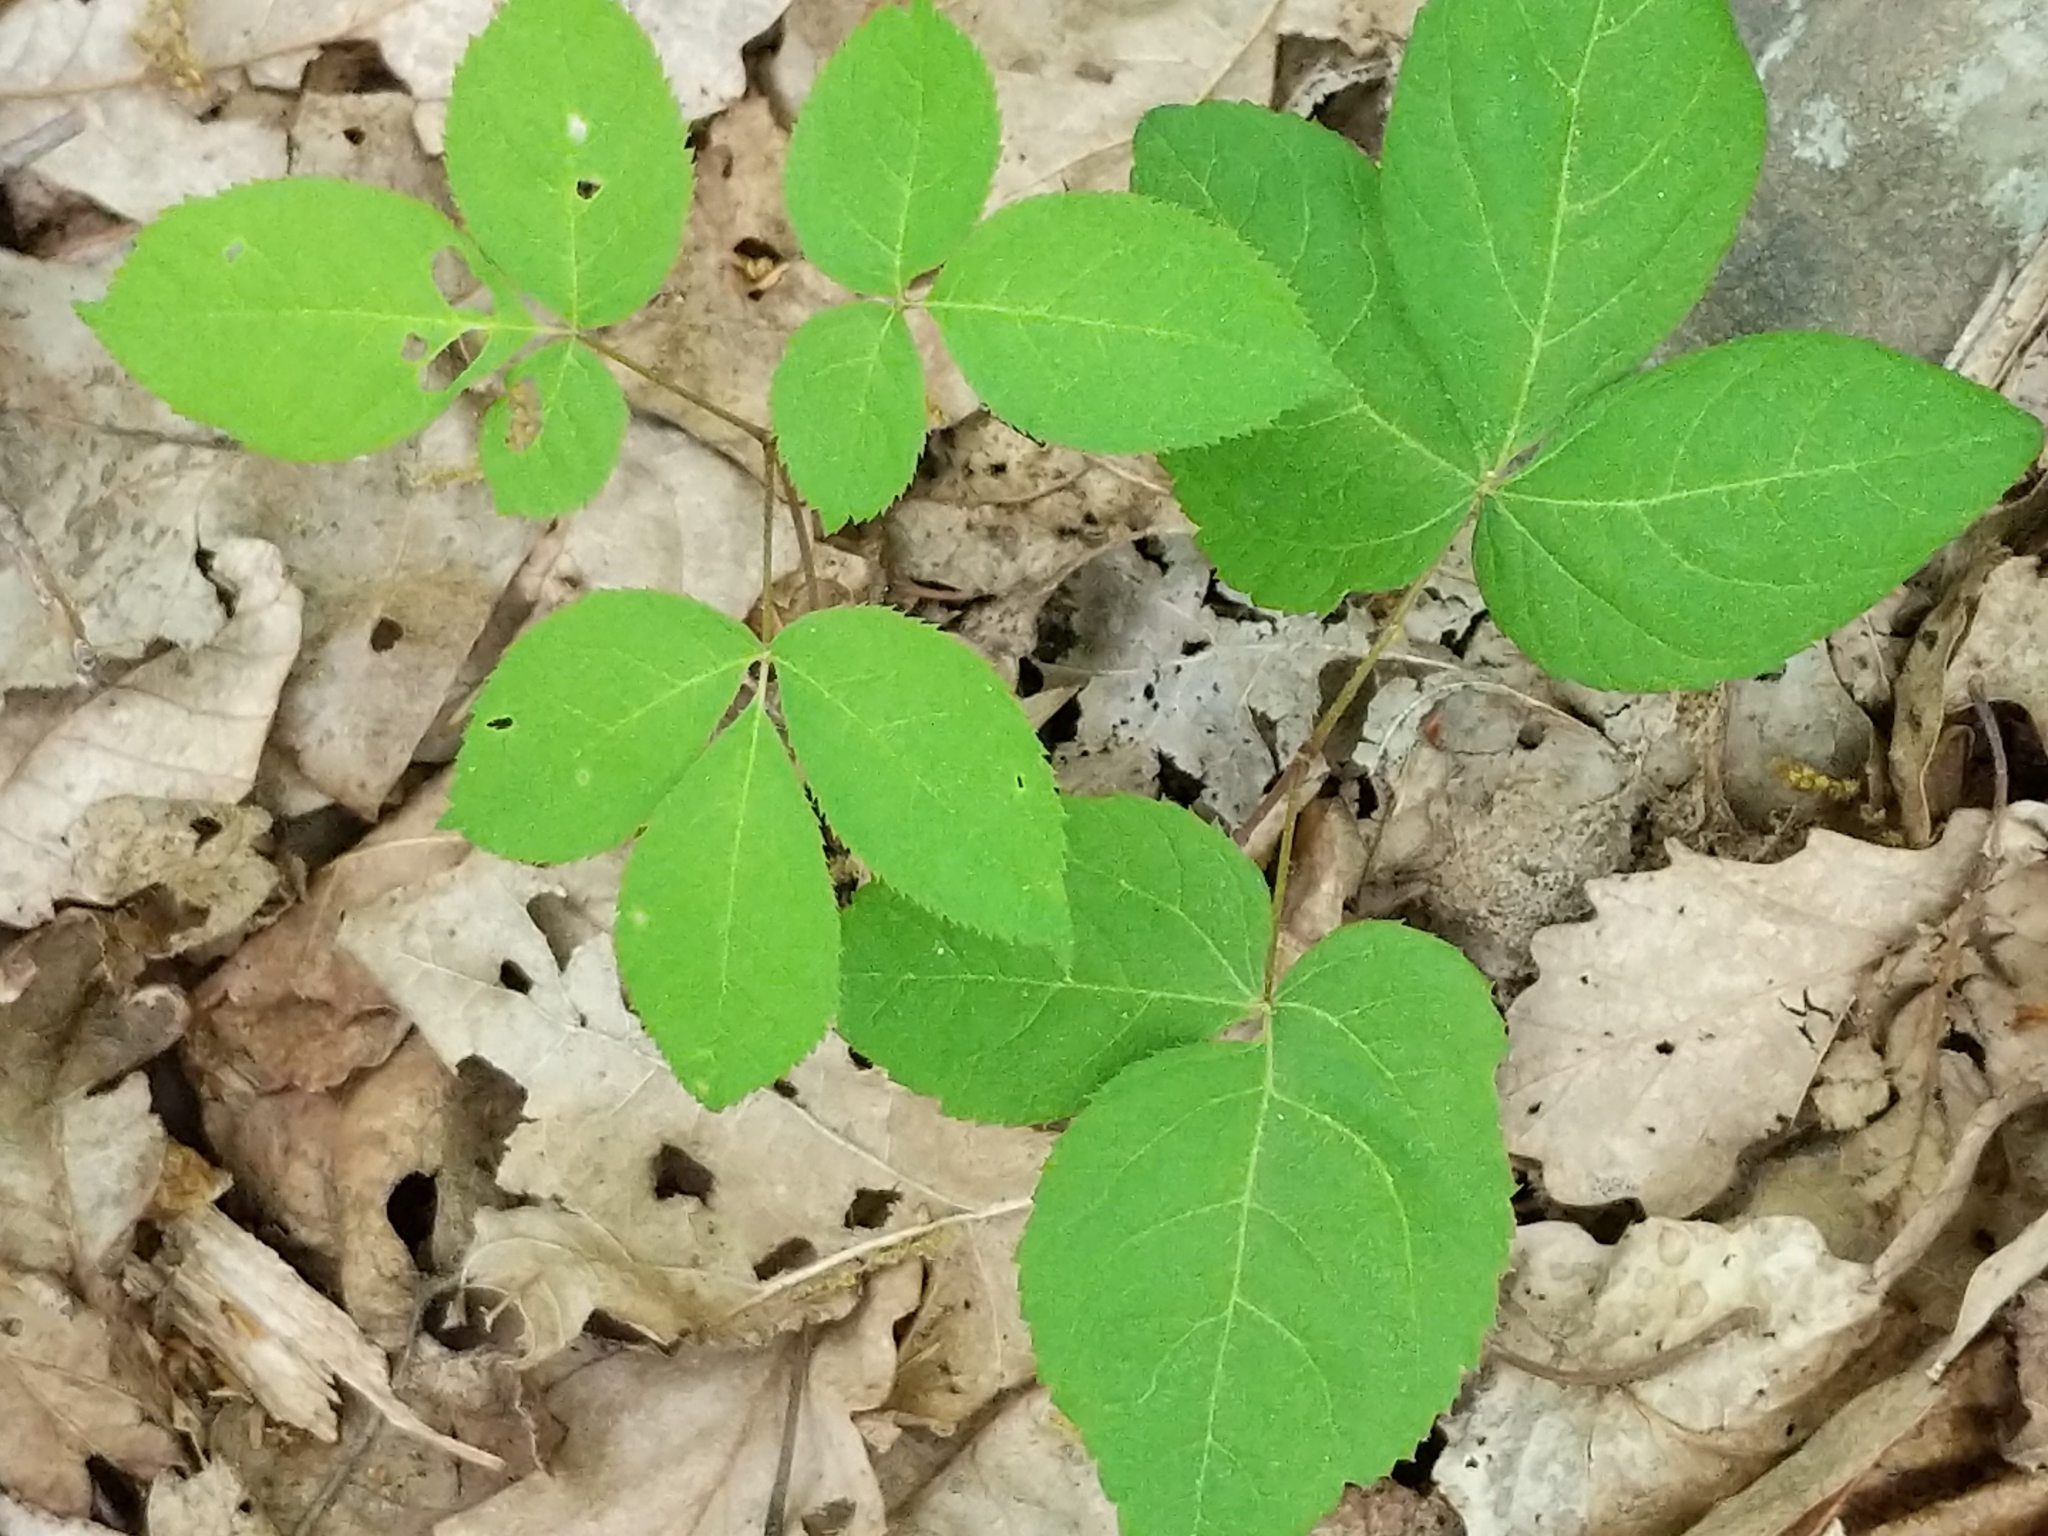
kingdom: Plantae
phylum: Tracheophyta
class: Magnoliopsida
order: Apiales
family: Araliaceae
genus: Aralia
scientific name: Aralia nudicaulis
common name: Wild sarsaparilla
